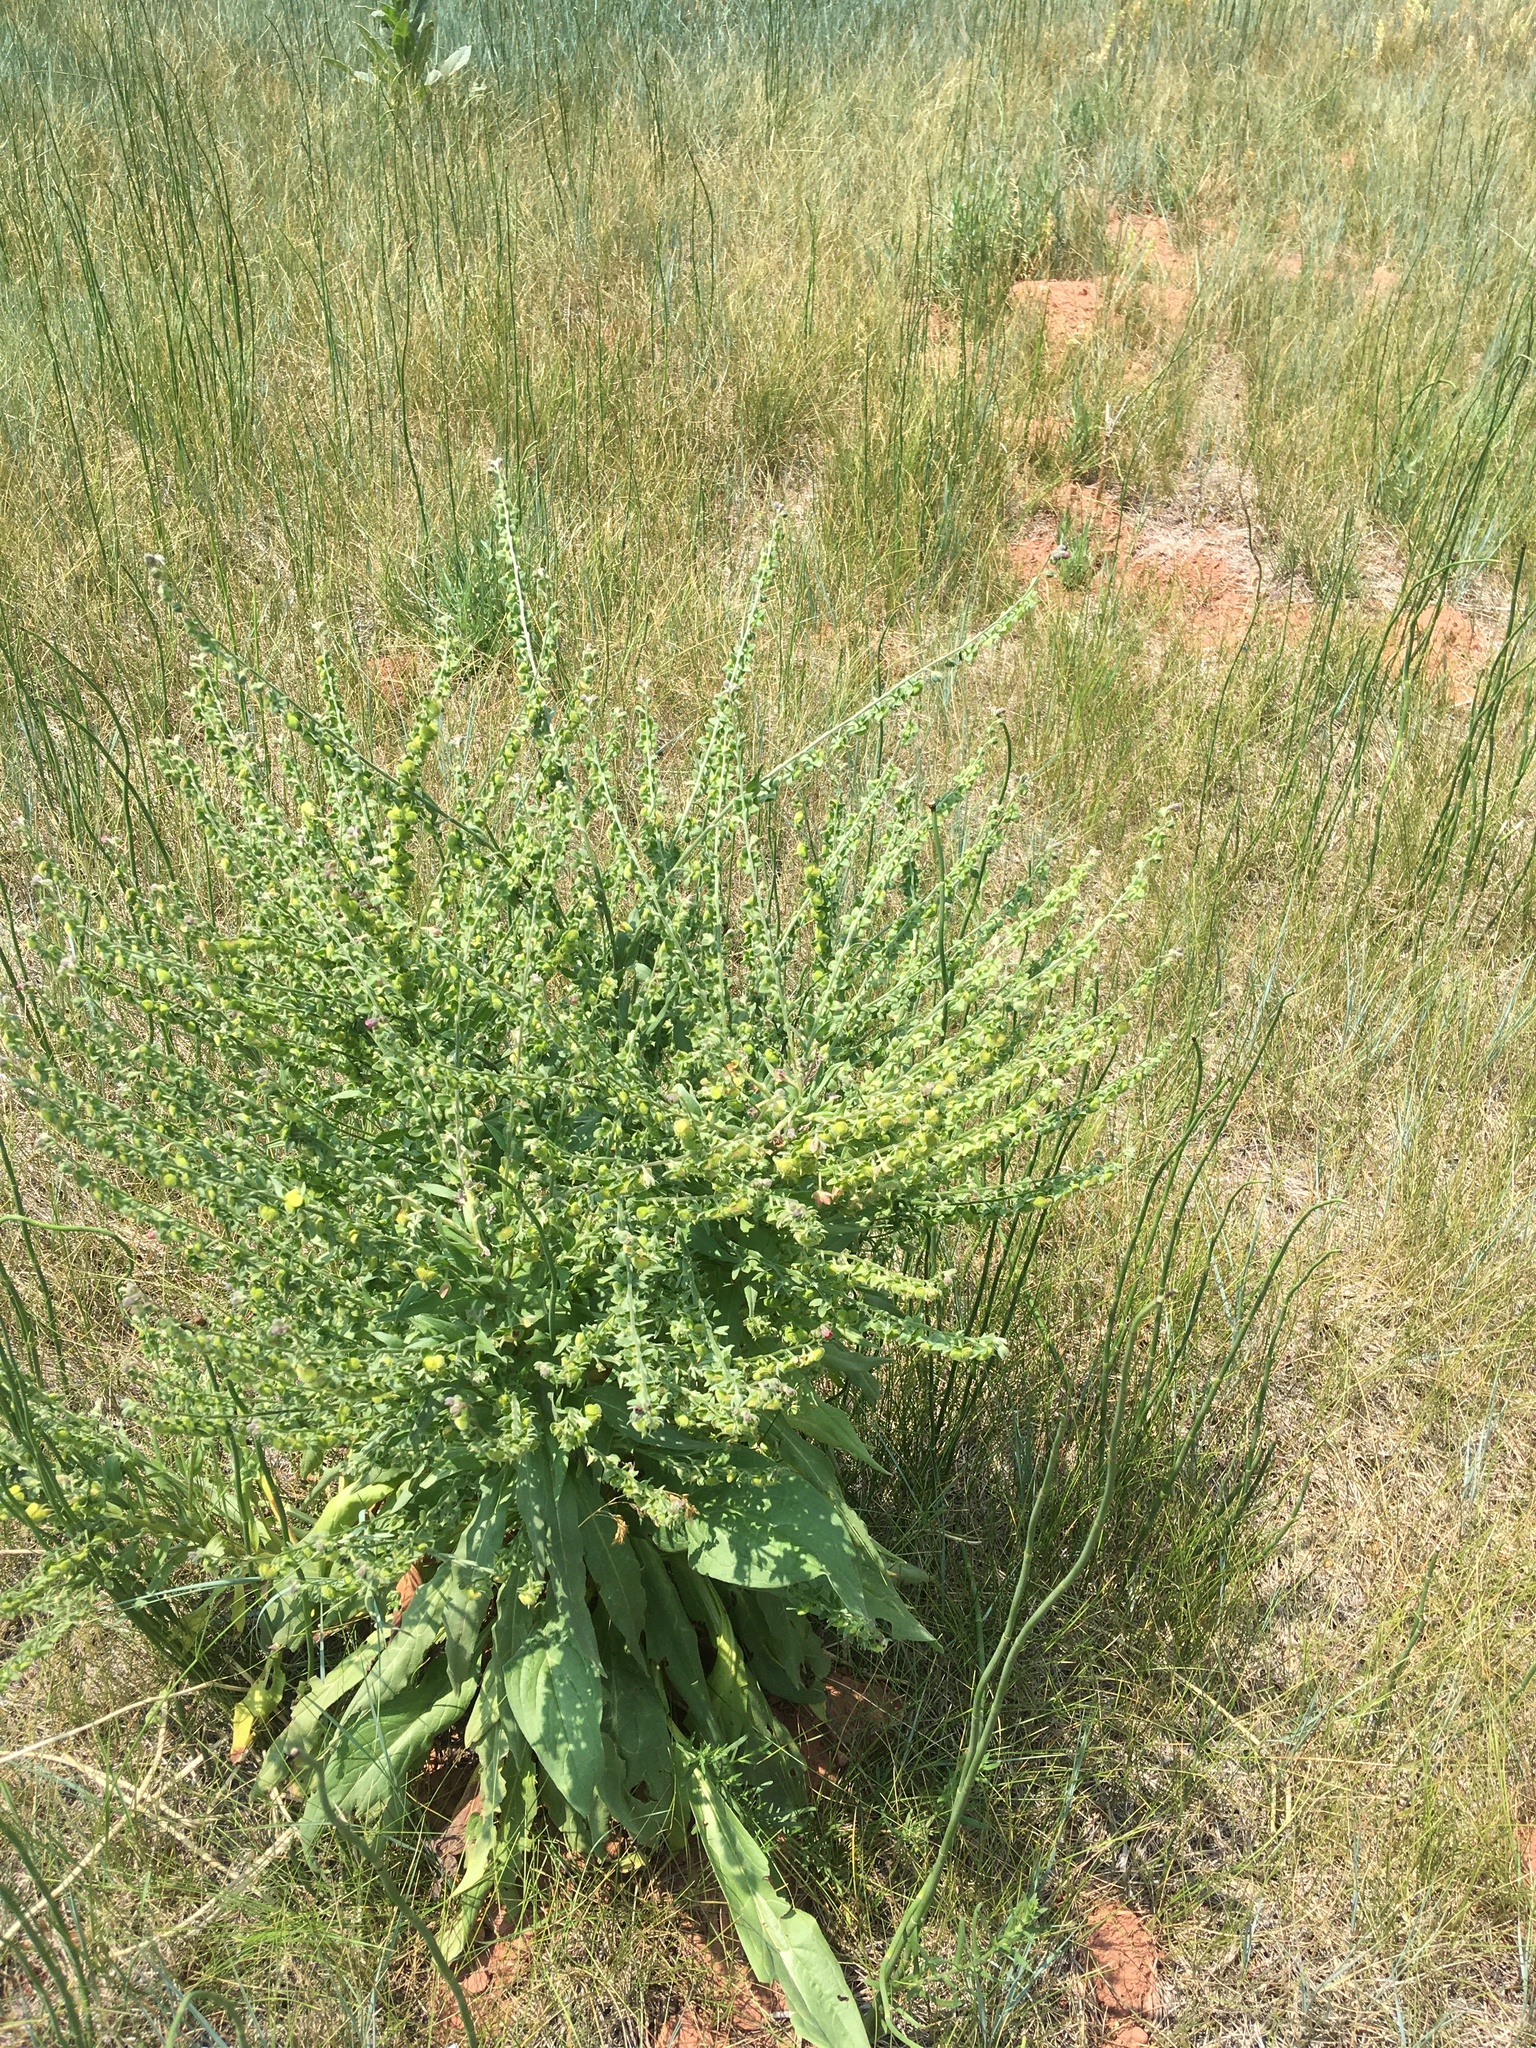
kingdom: Plantae
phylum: Tracheophyta
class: Magnoliopsida
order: Boraginales
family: Boraginaceae
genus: Cynoglossum
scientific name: Cynoglossum officinale
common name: Hound's-tongue
